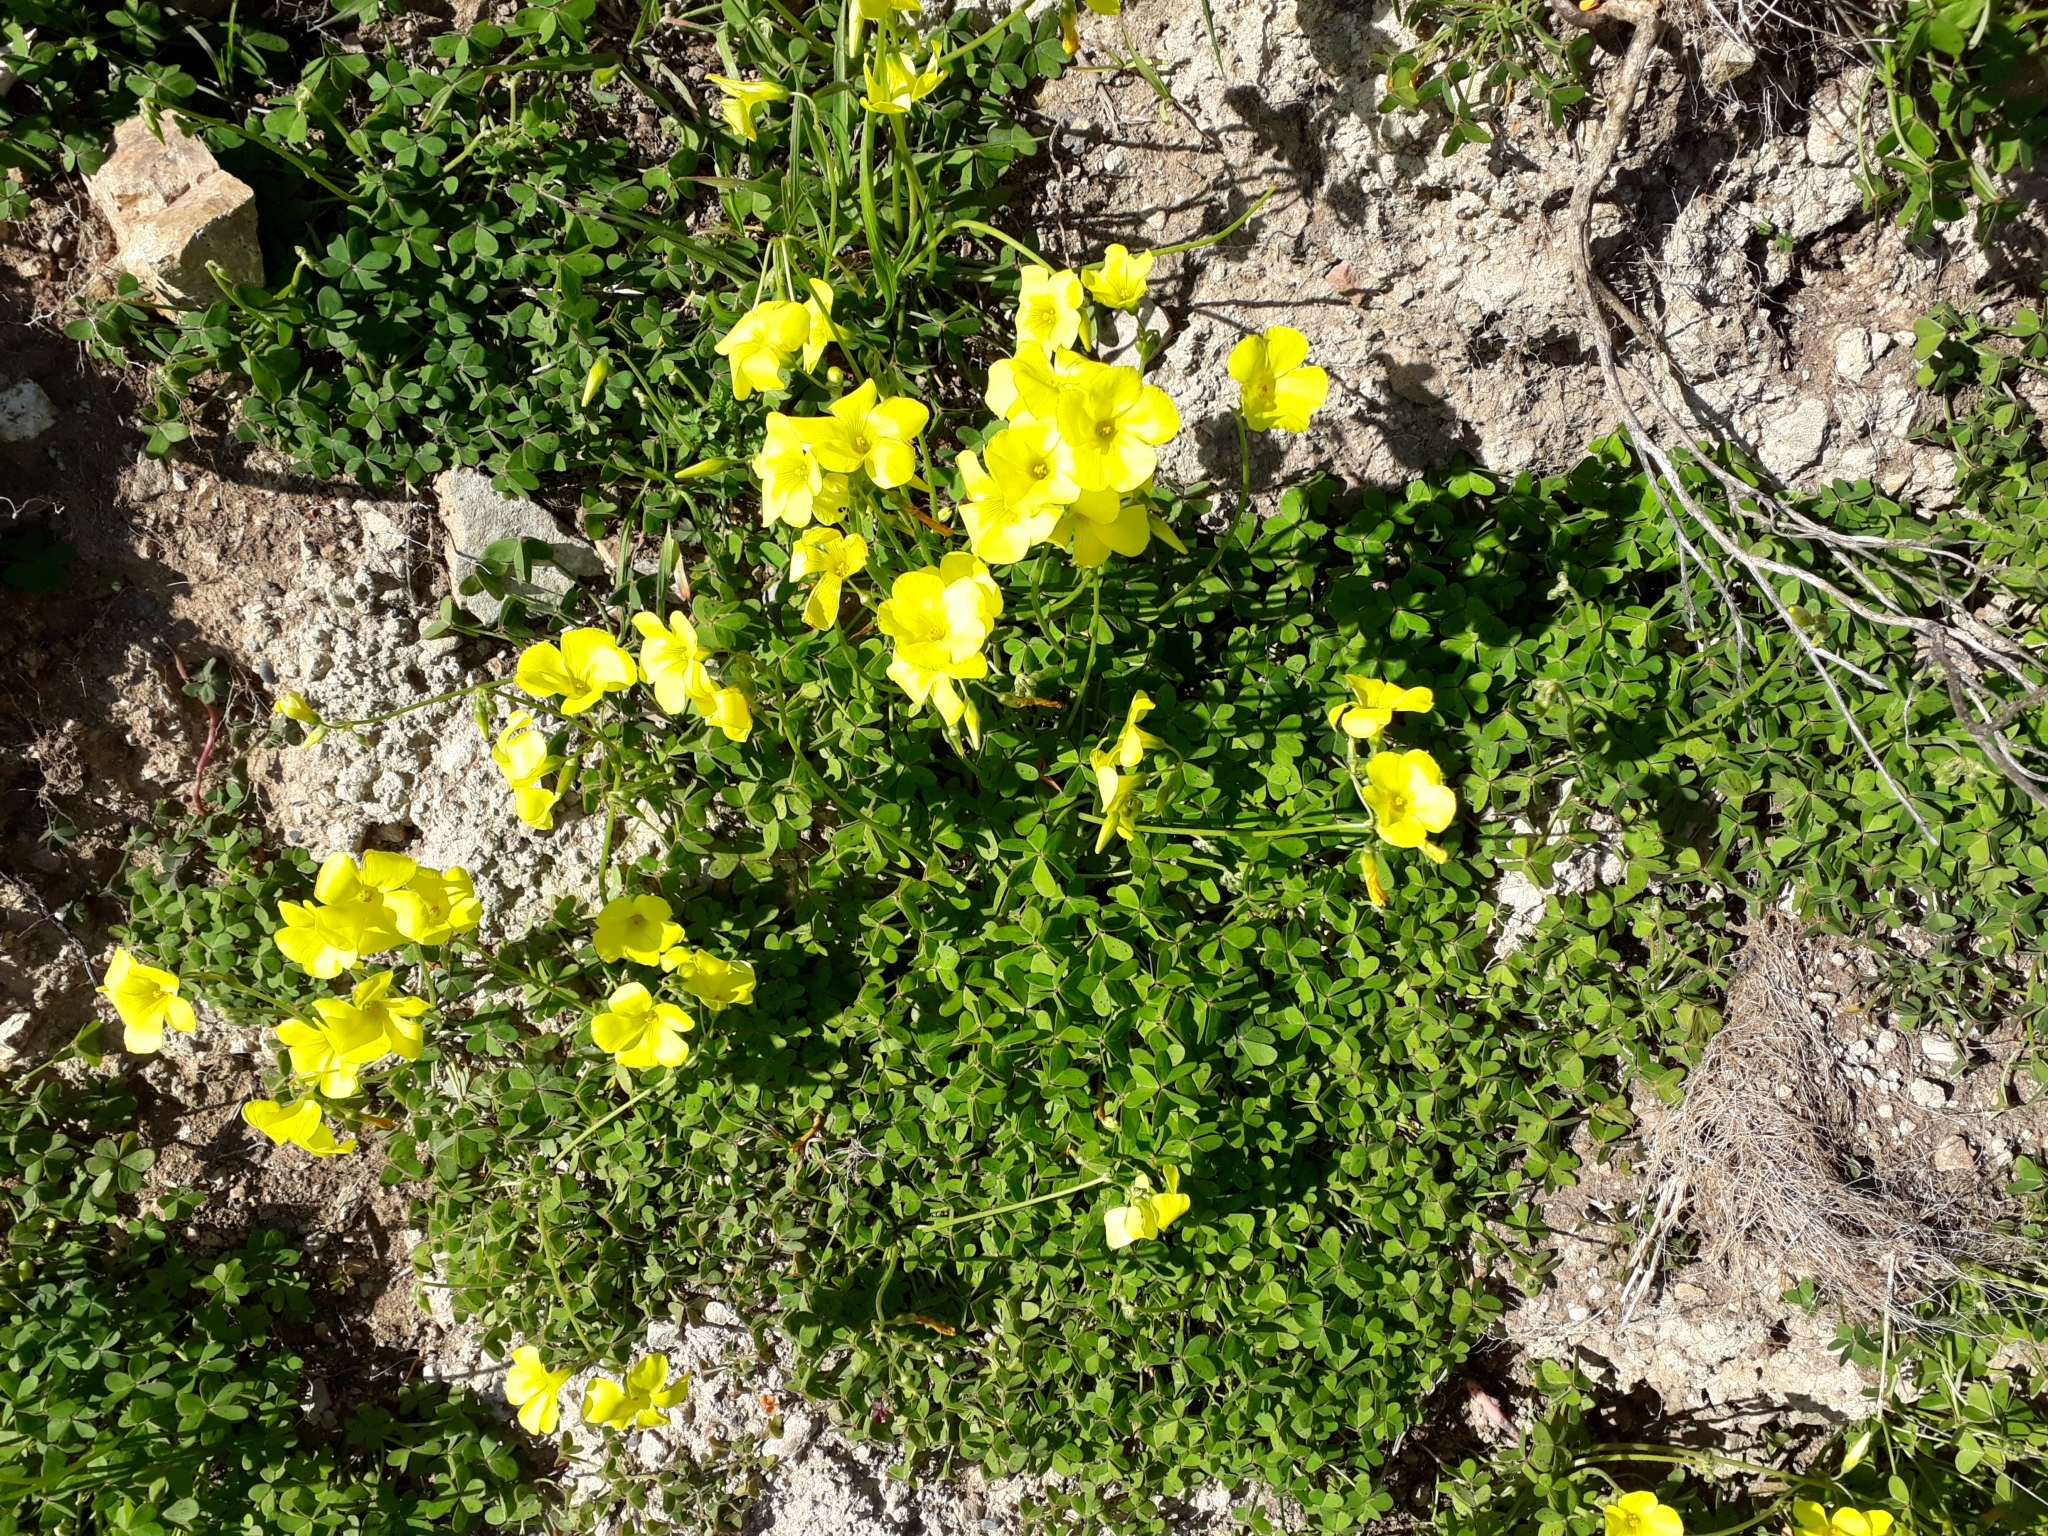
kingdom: Plantae
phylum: Tracheophyta
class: Magnoliopsida
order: Oxalidales
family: Oxalidaceae
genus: Oxalis
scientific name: Oxalis pes-caprae
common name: Bermuda-buttercup
